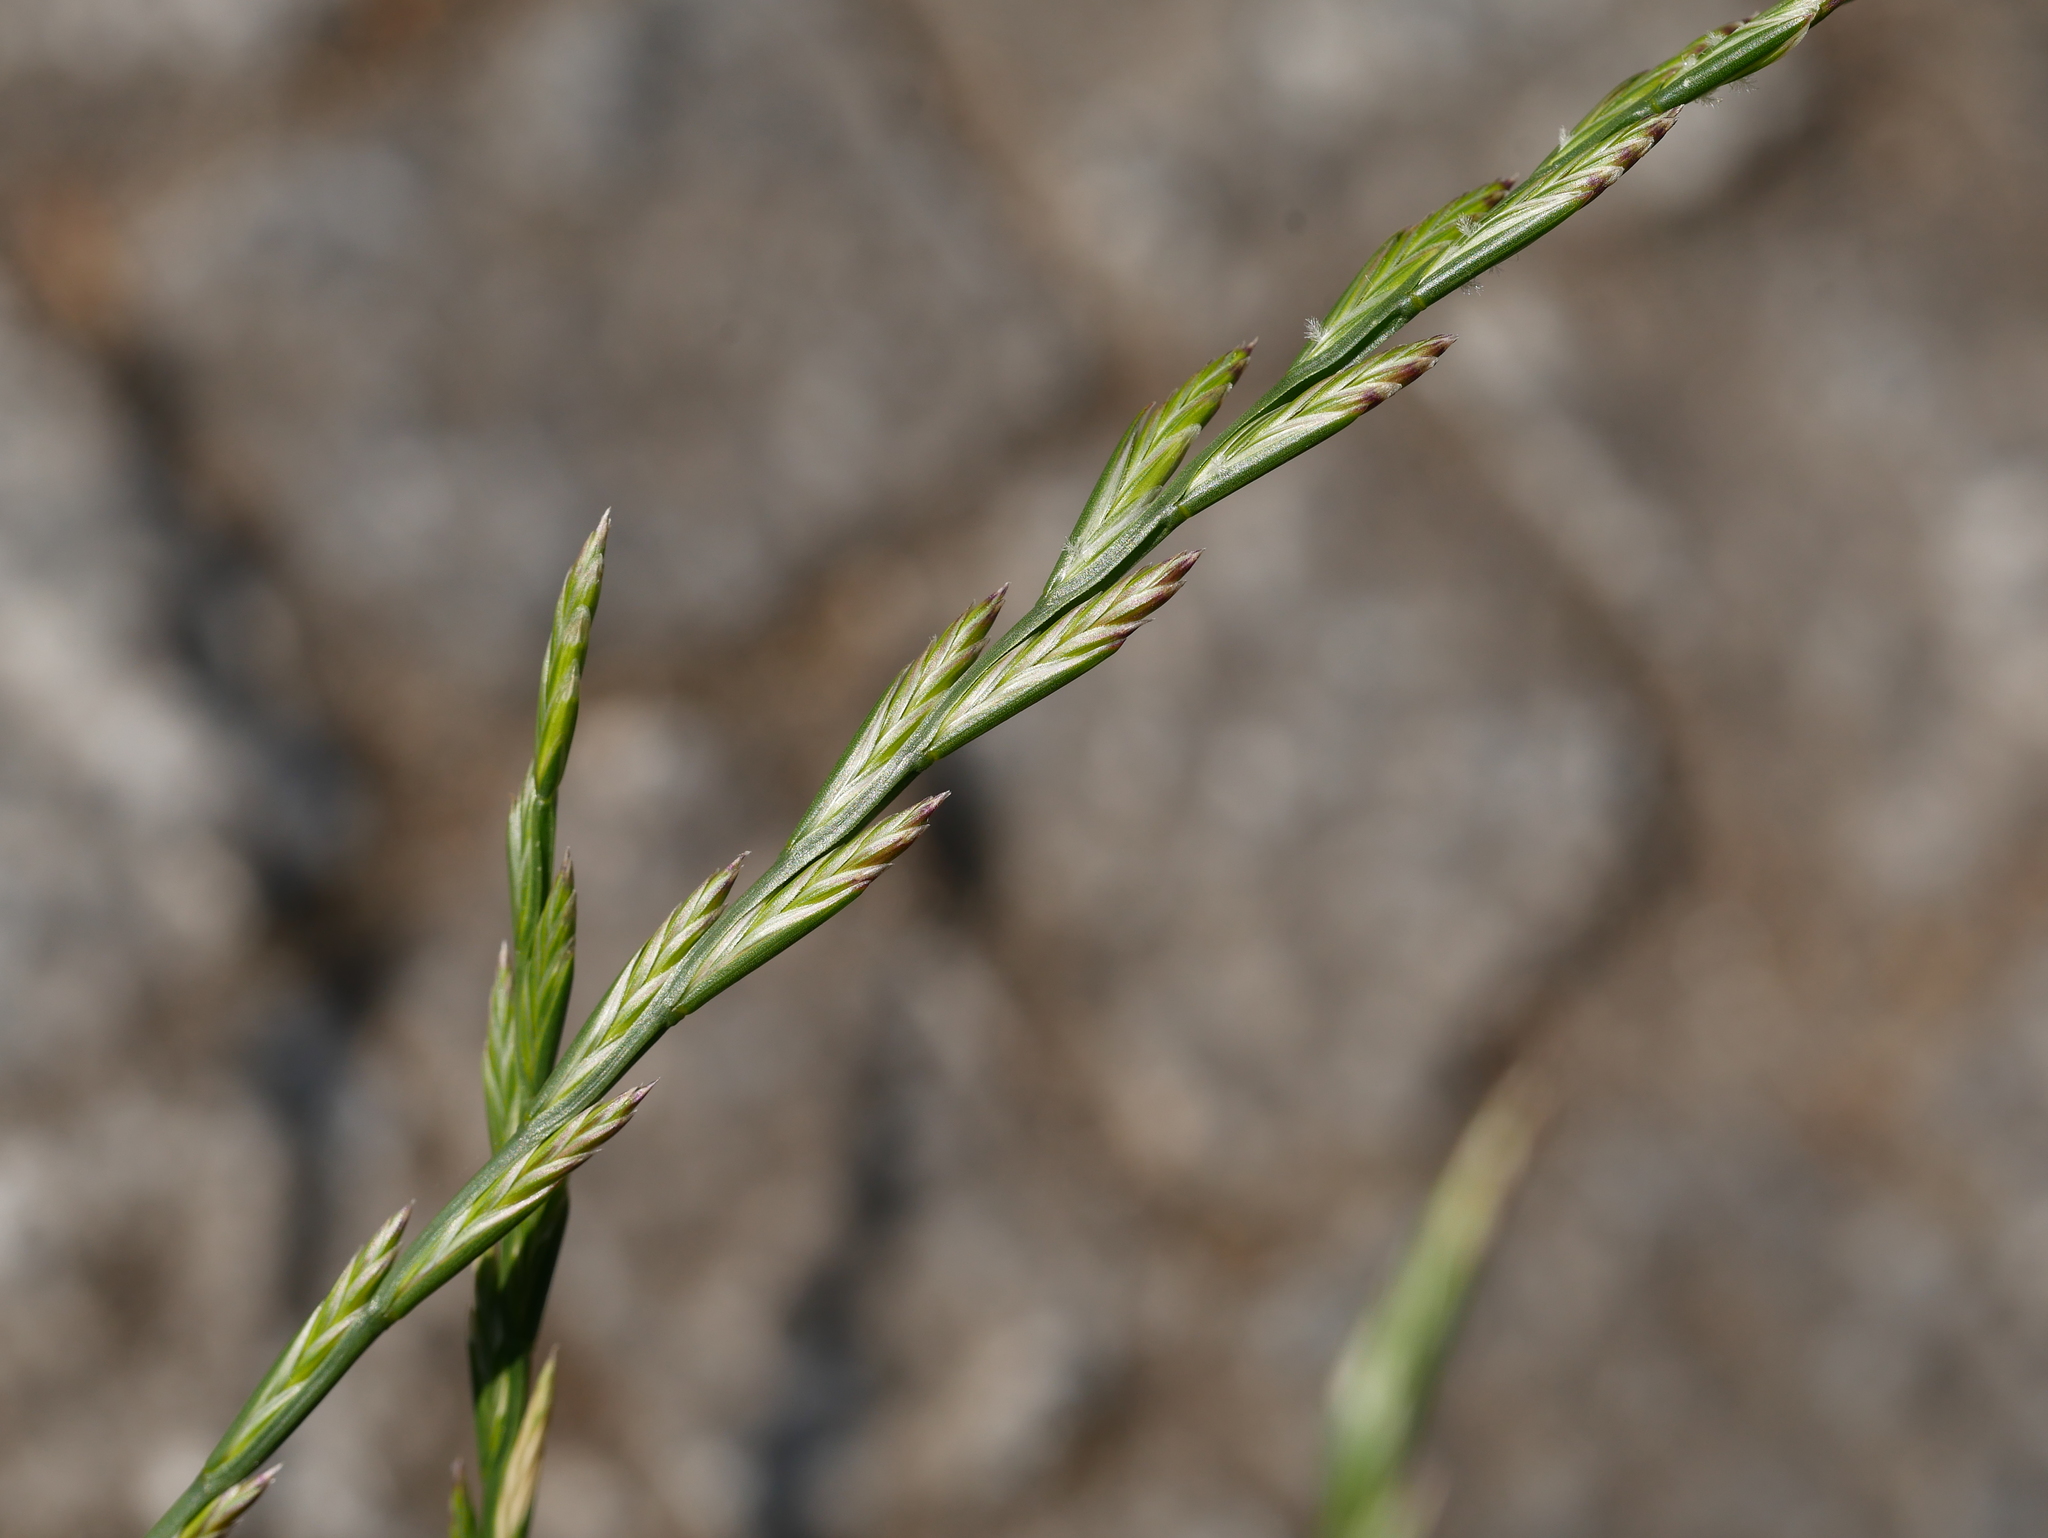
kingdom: Plantae
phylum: Tracheophyta
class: Liliopsida
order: Poales
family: Poaceae
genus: Lolium
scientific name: Lolium perenne
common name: Perennial ryegrass
